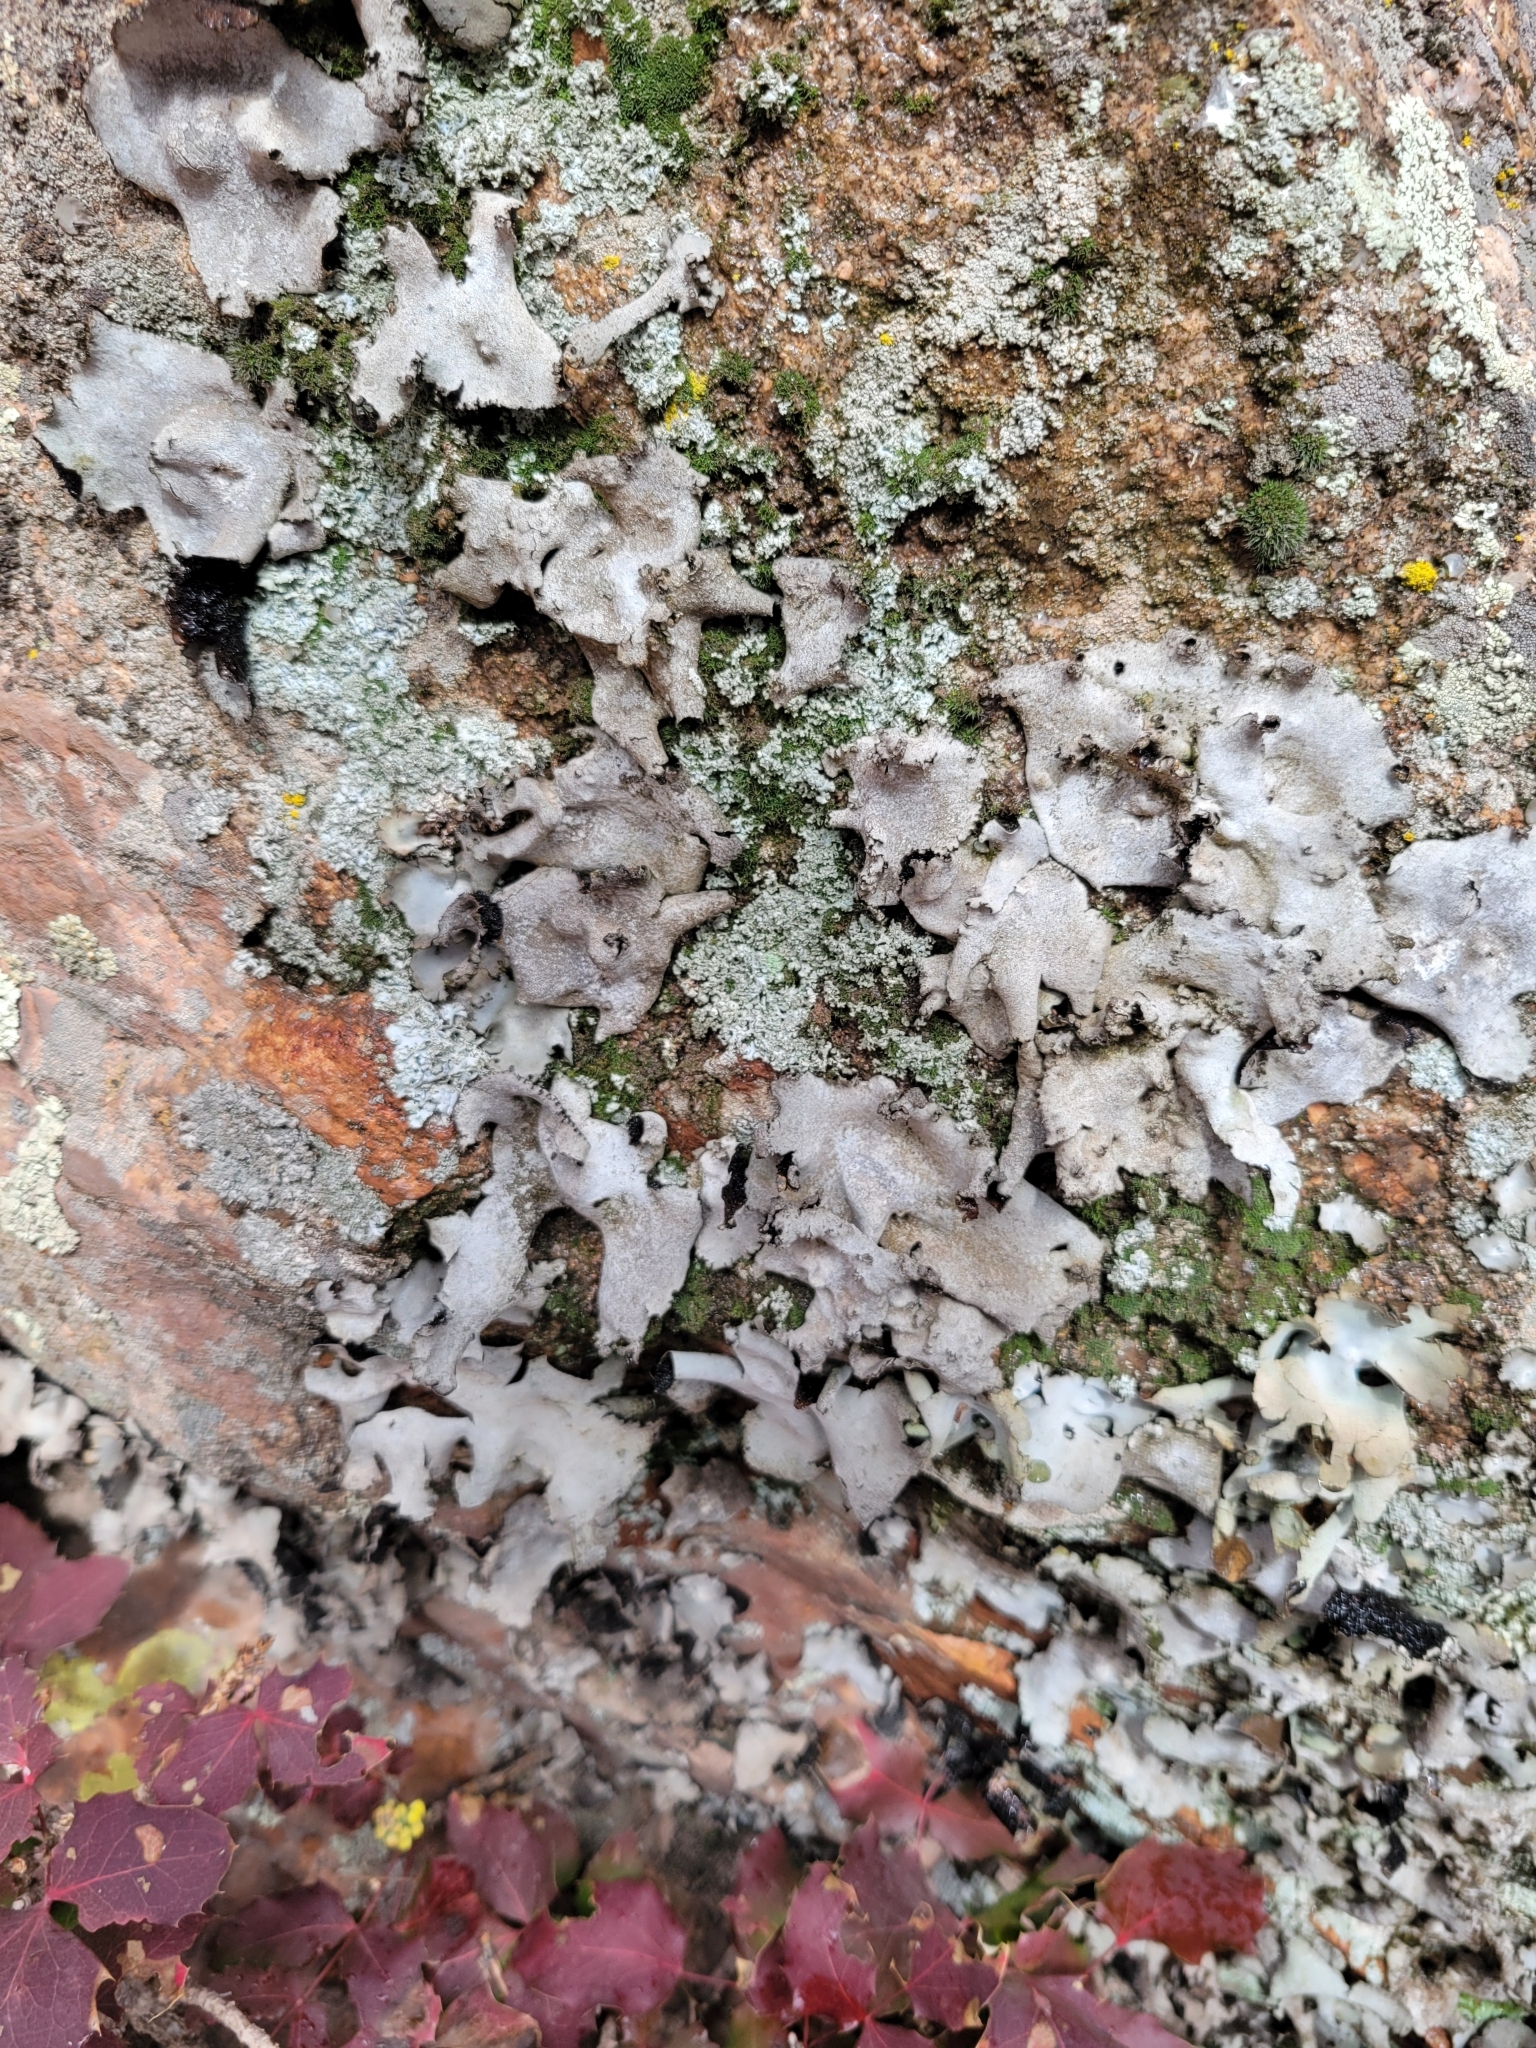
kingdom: Fungi
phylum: Ascomycota
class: Lecanoromycetes
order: Umbilicariales
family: Umbilicariaceae
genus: Umbilicaria
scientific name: Umbilicaria americana
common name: Frosted rock tripe
